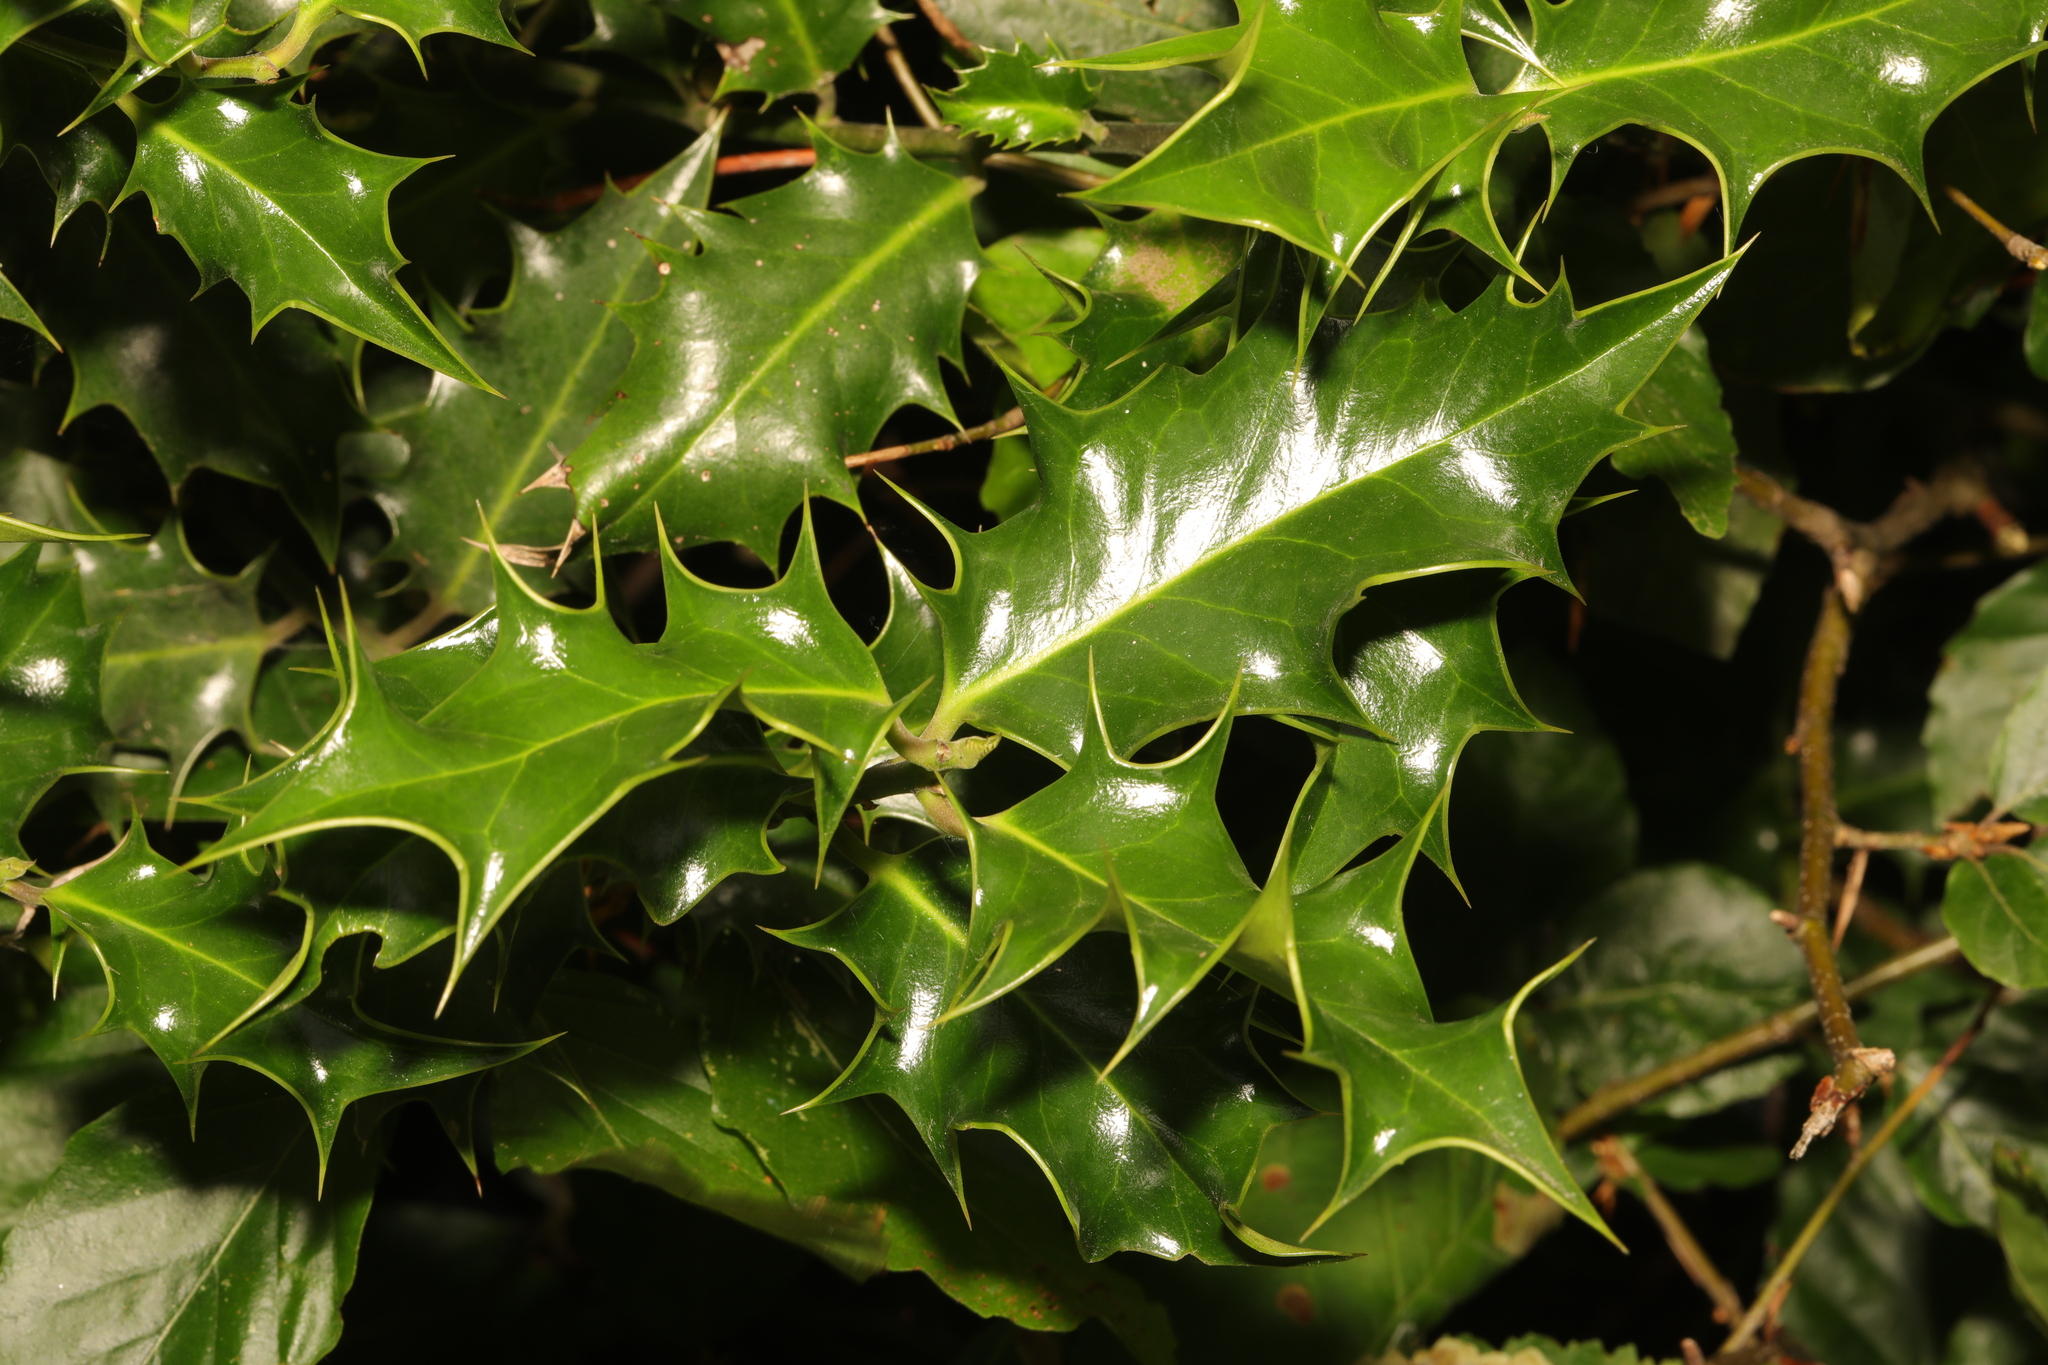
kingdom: Plantae
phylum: Tracheophyta
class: Magnoliopsida
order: Aquifoliales
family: Aquifoliaceae
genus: Ilex
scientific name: Ilex aquifolium
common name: English holly
